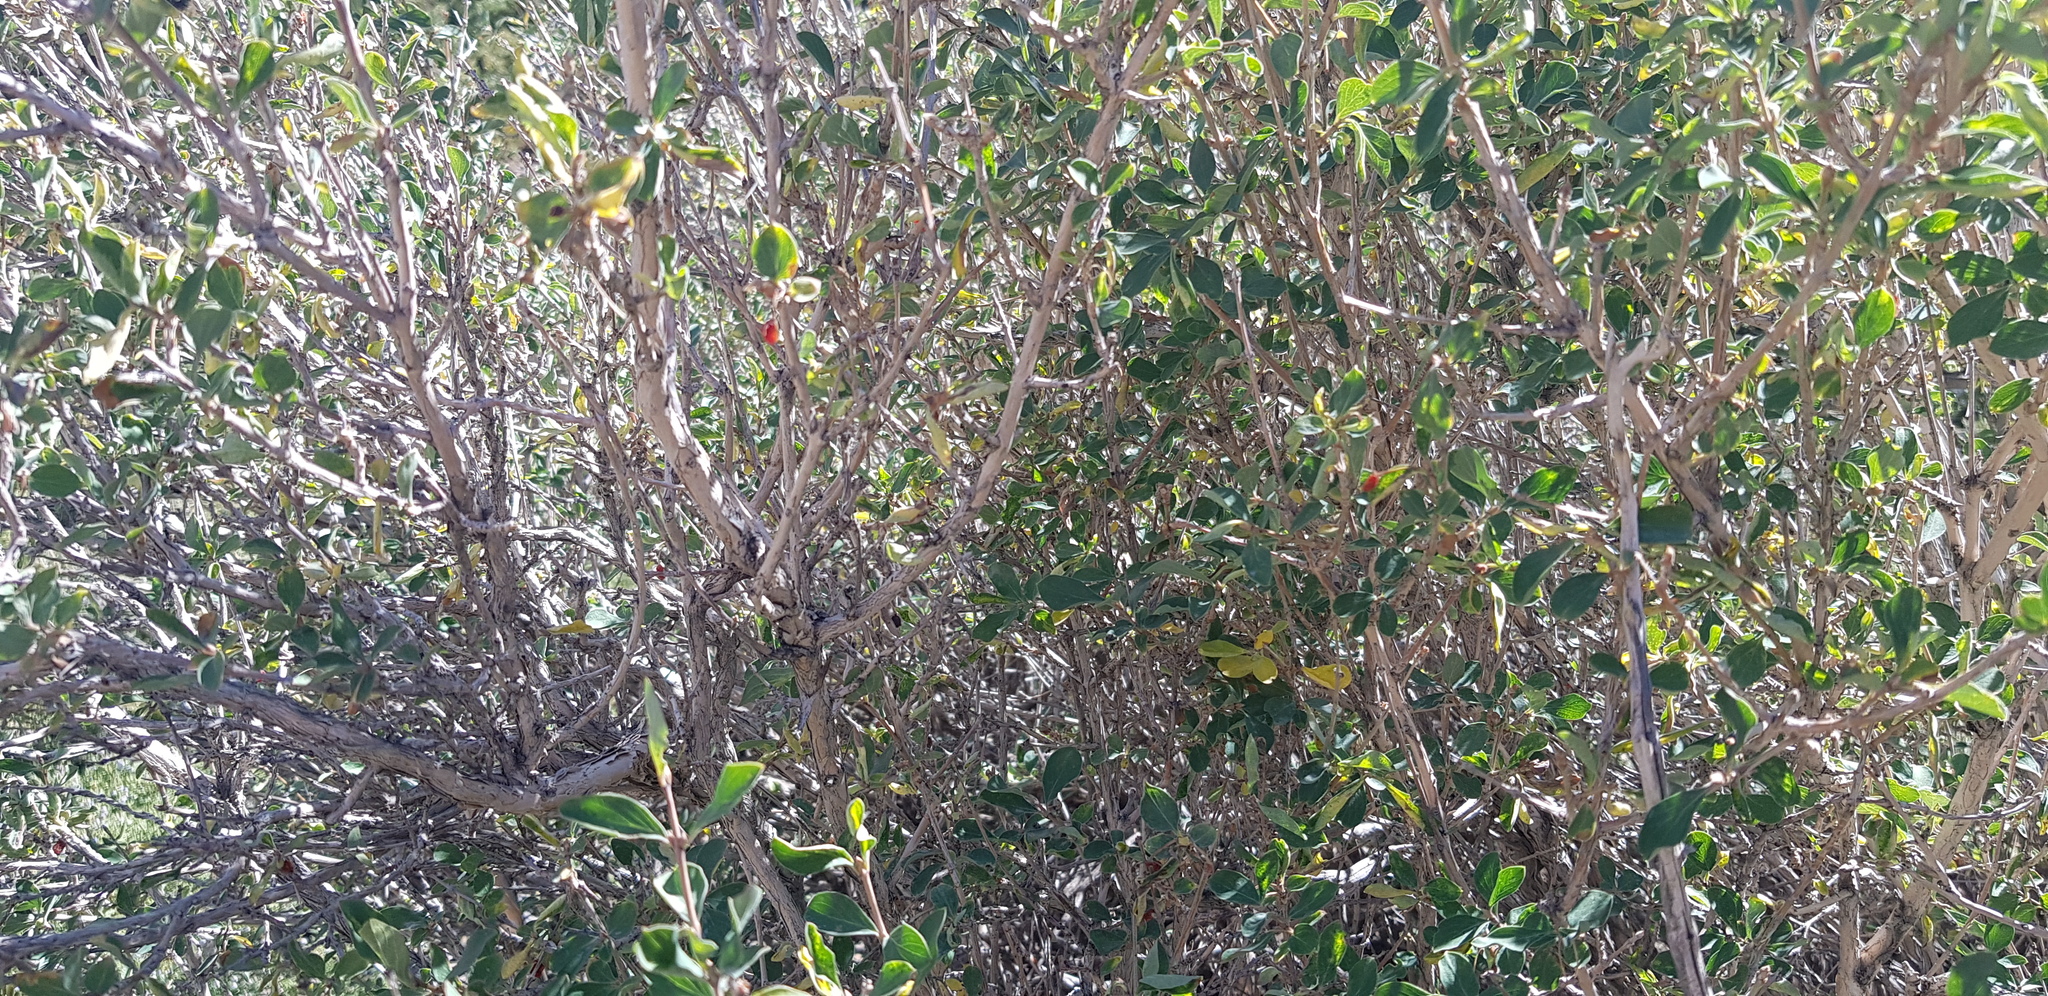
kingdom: Plantae
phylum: Tracheophyta
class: Magnoliopsida
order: Dipsacales
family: Caprifoliaceae
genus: Lonicera
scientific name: Lonicera microphylla
